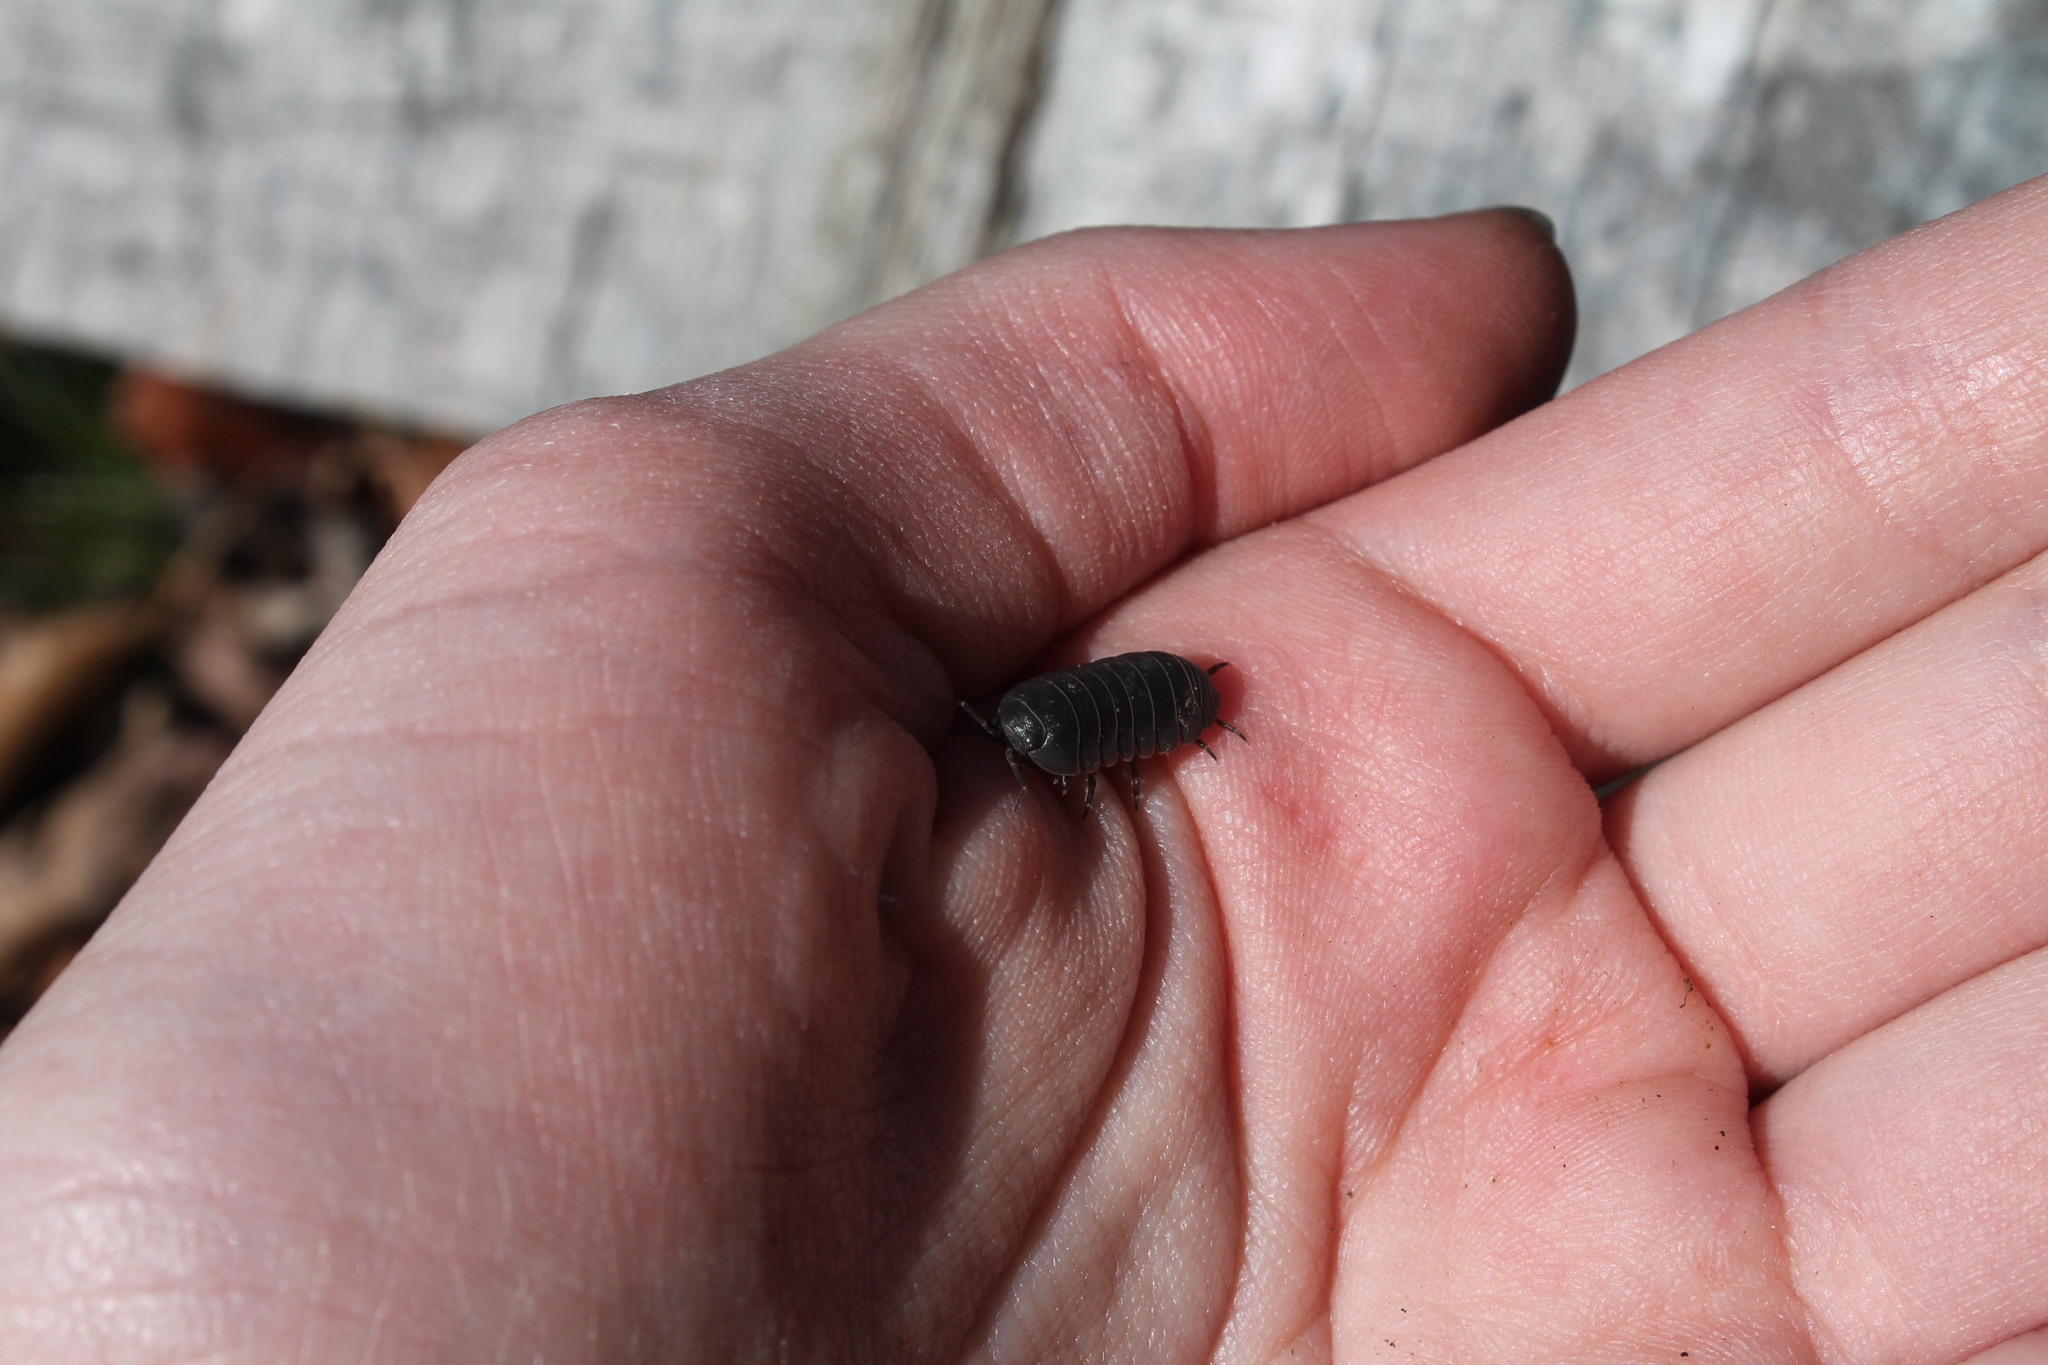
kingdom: Animalia
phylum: Arthropoda
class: Malacostraca
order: Isopoda
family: Armadillidiidae
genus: Armadillidium
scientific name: Armadillidium vulgare
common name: Common pill woodlouse
